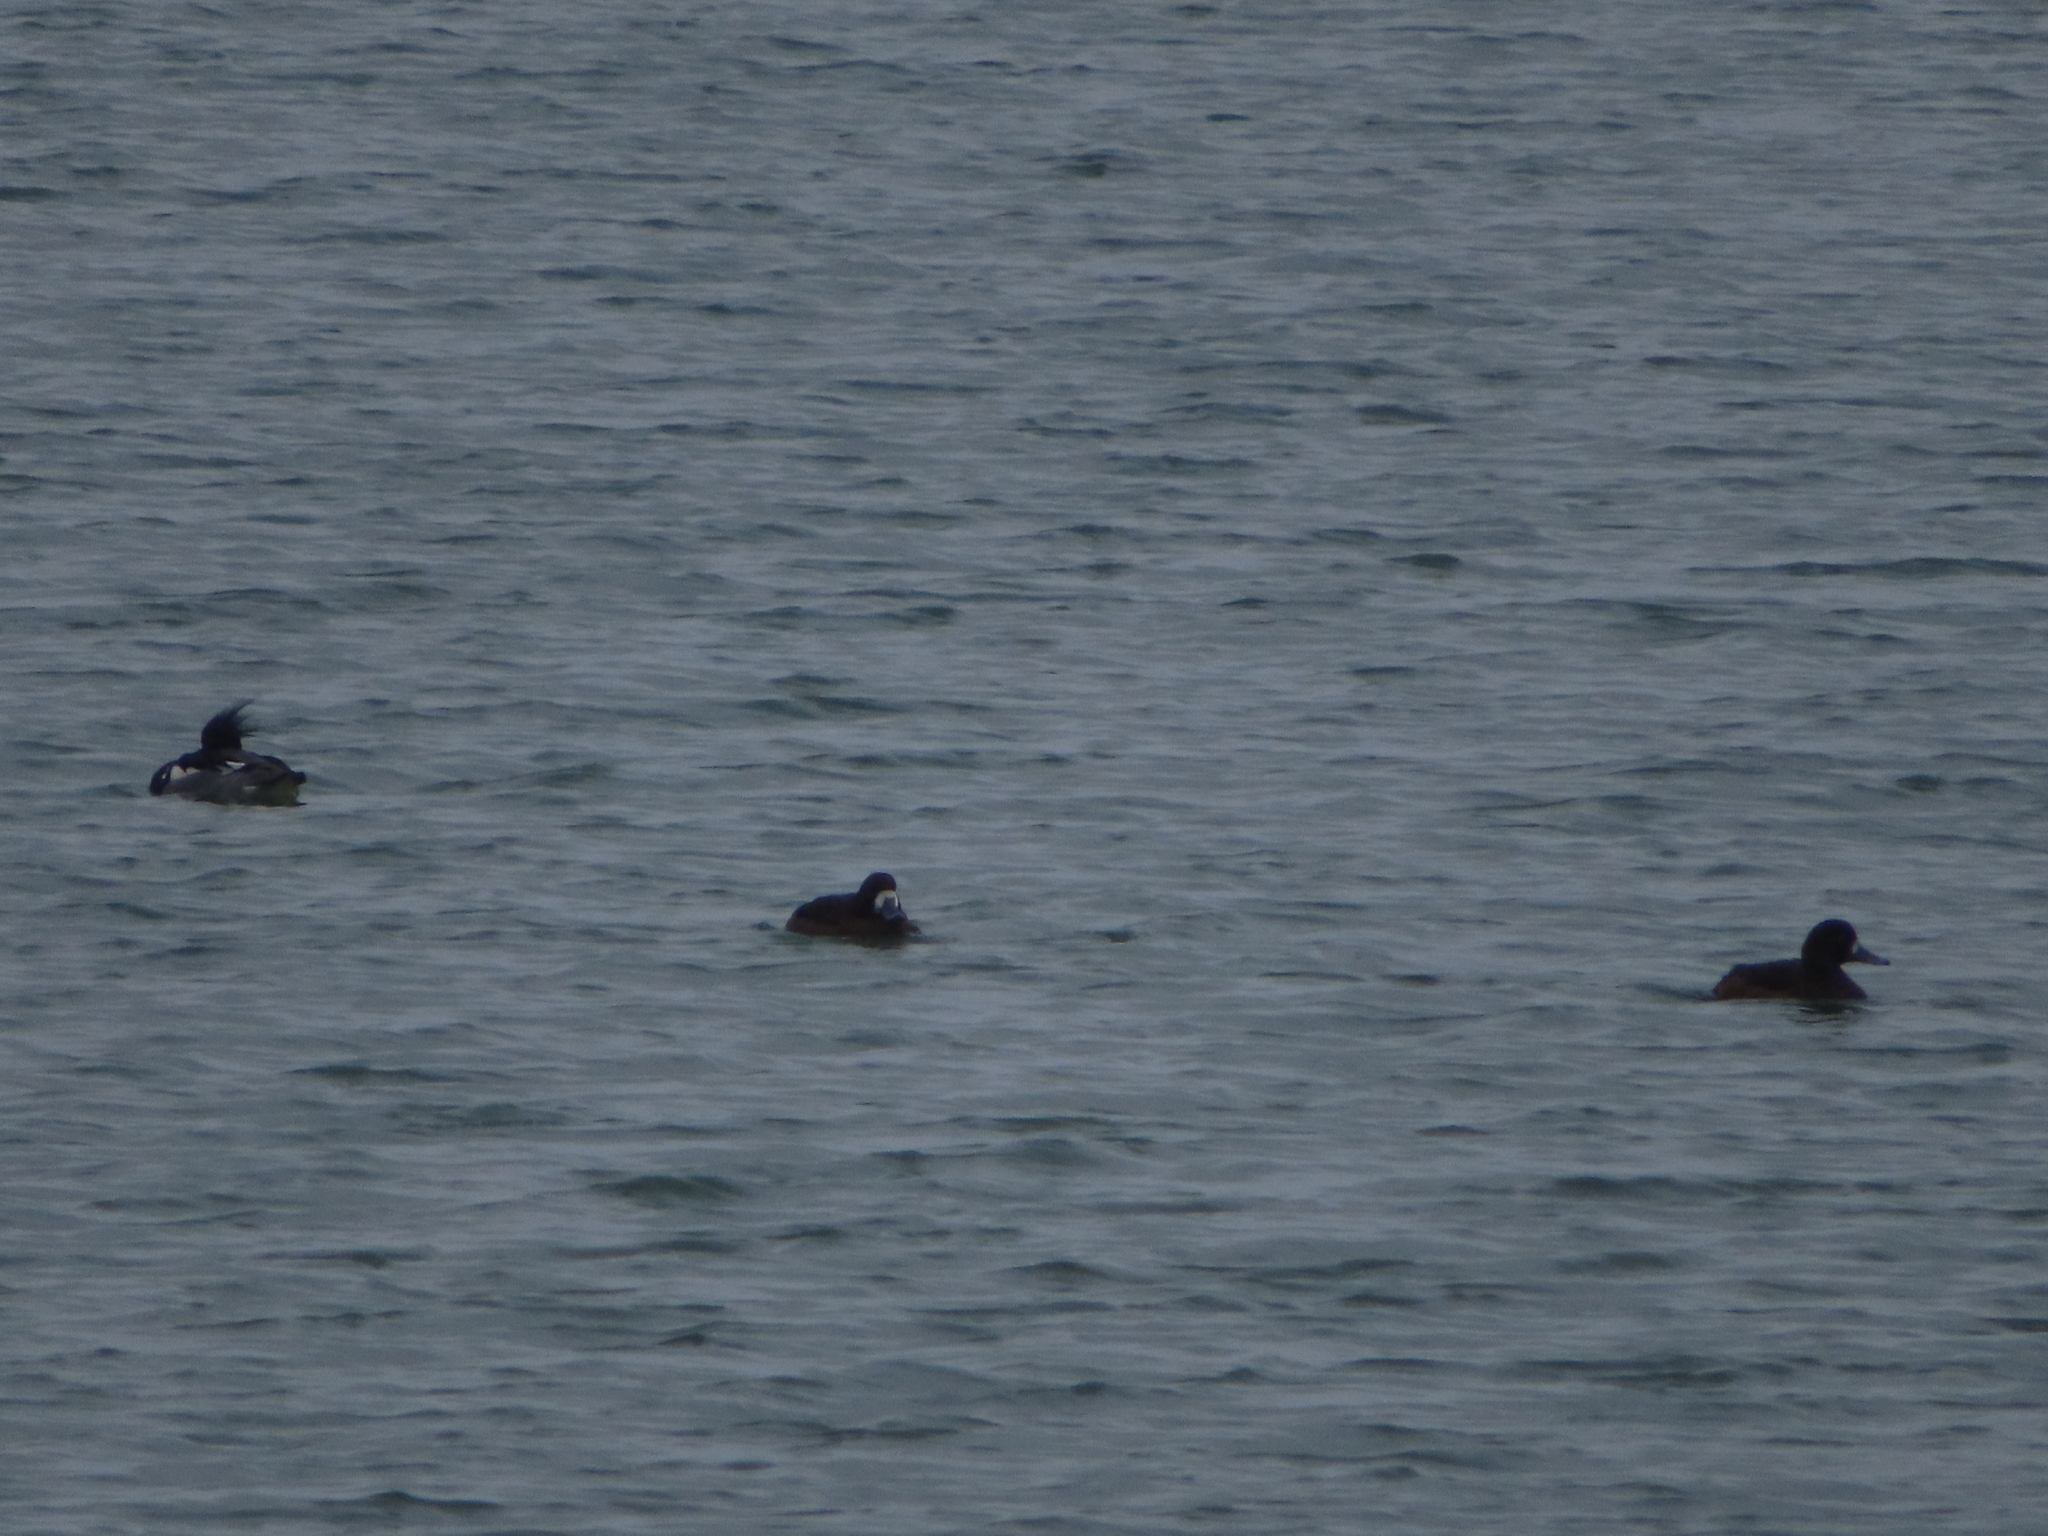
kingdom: Animalia
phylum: Chordata
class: Aves
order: Anseriformes
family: Anatidae
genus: Aythya
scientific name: Aythya marila
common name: Greater scaup
